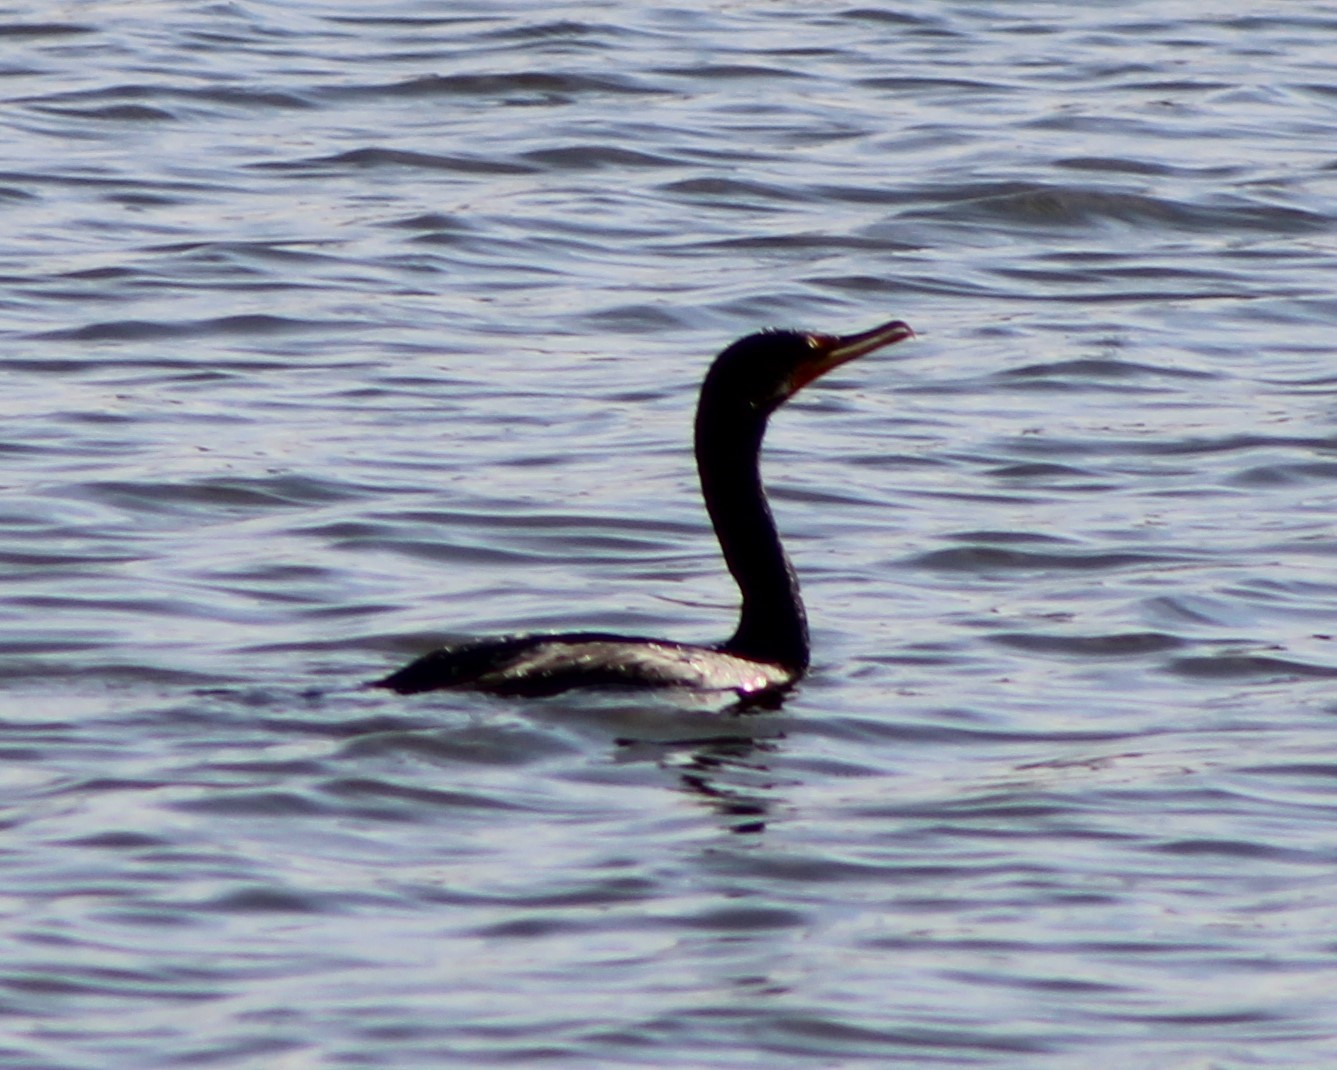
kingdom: Animalia
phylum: Chordata
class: Aves
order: Suliformes
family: Phalacrocoracidae
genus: Phalacrocorax
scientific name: Phalacrocorax auritus
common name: Double-crested cormorant
